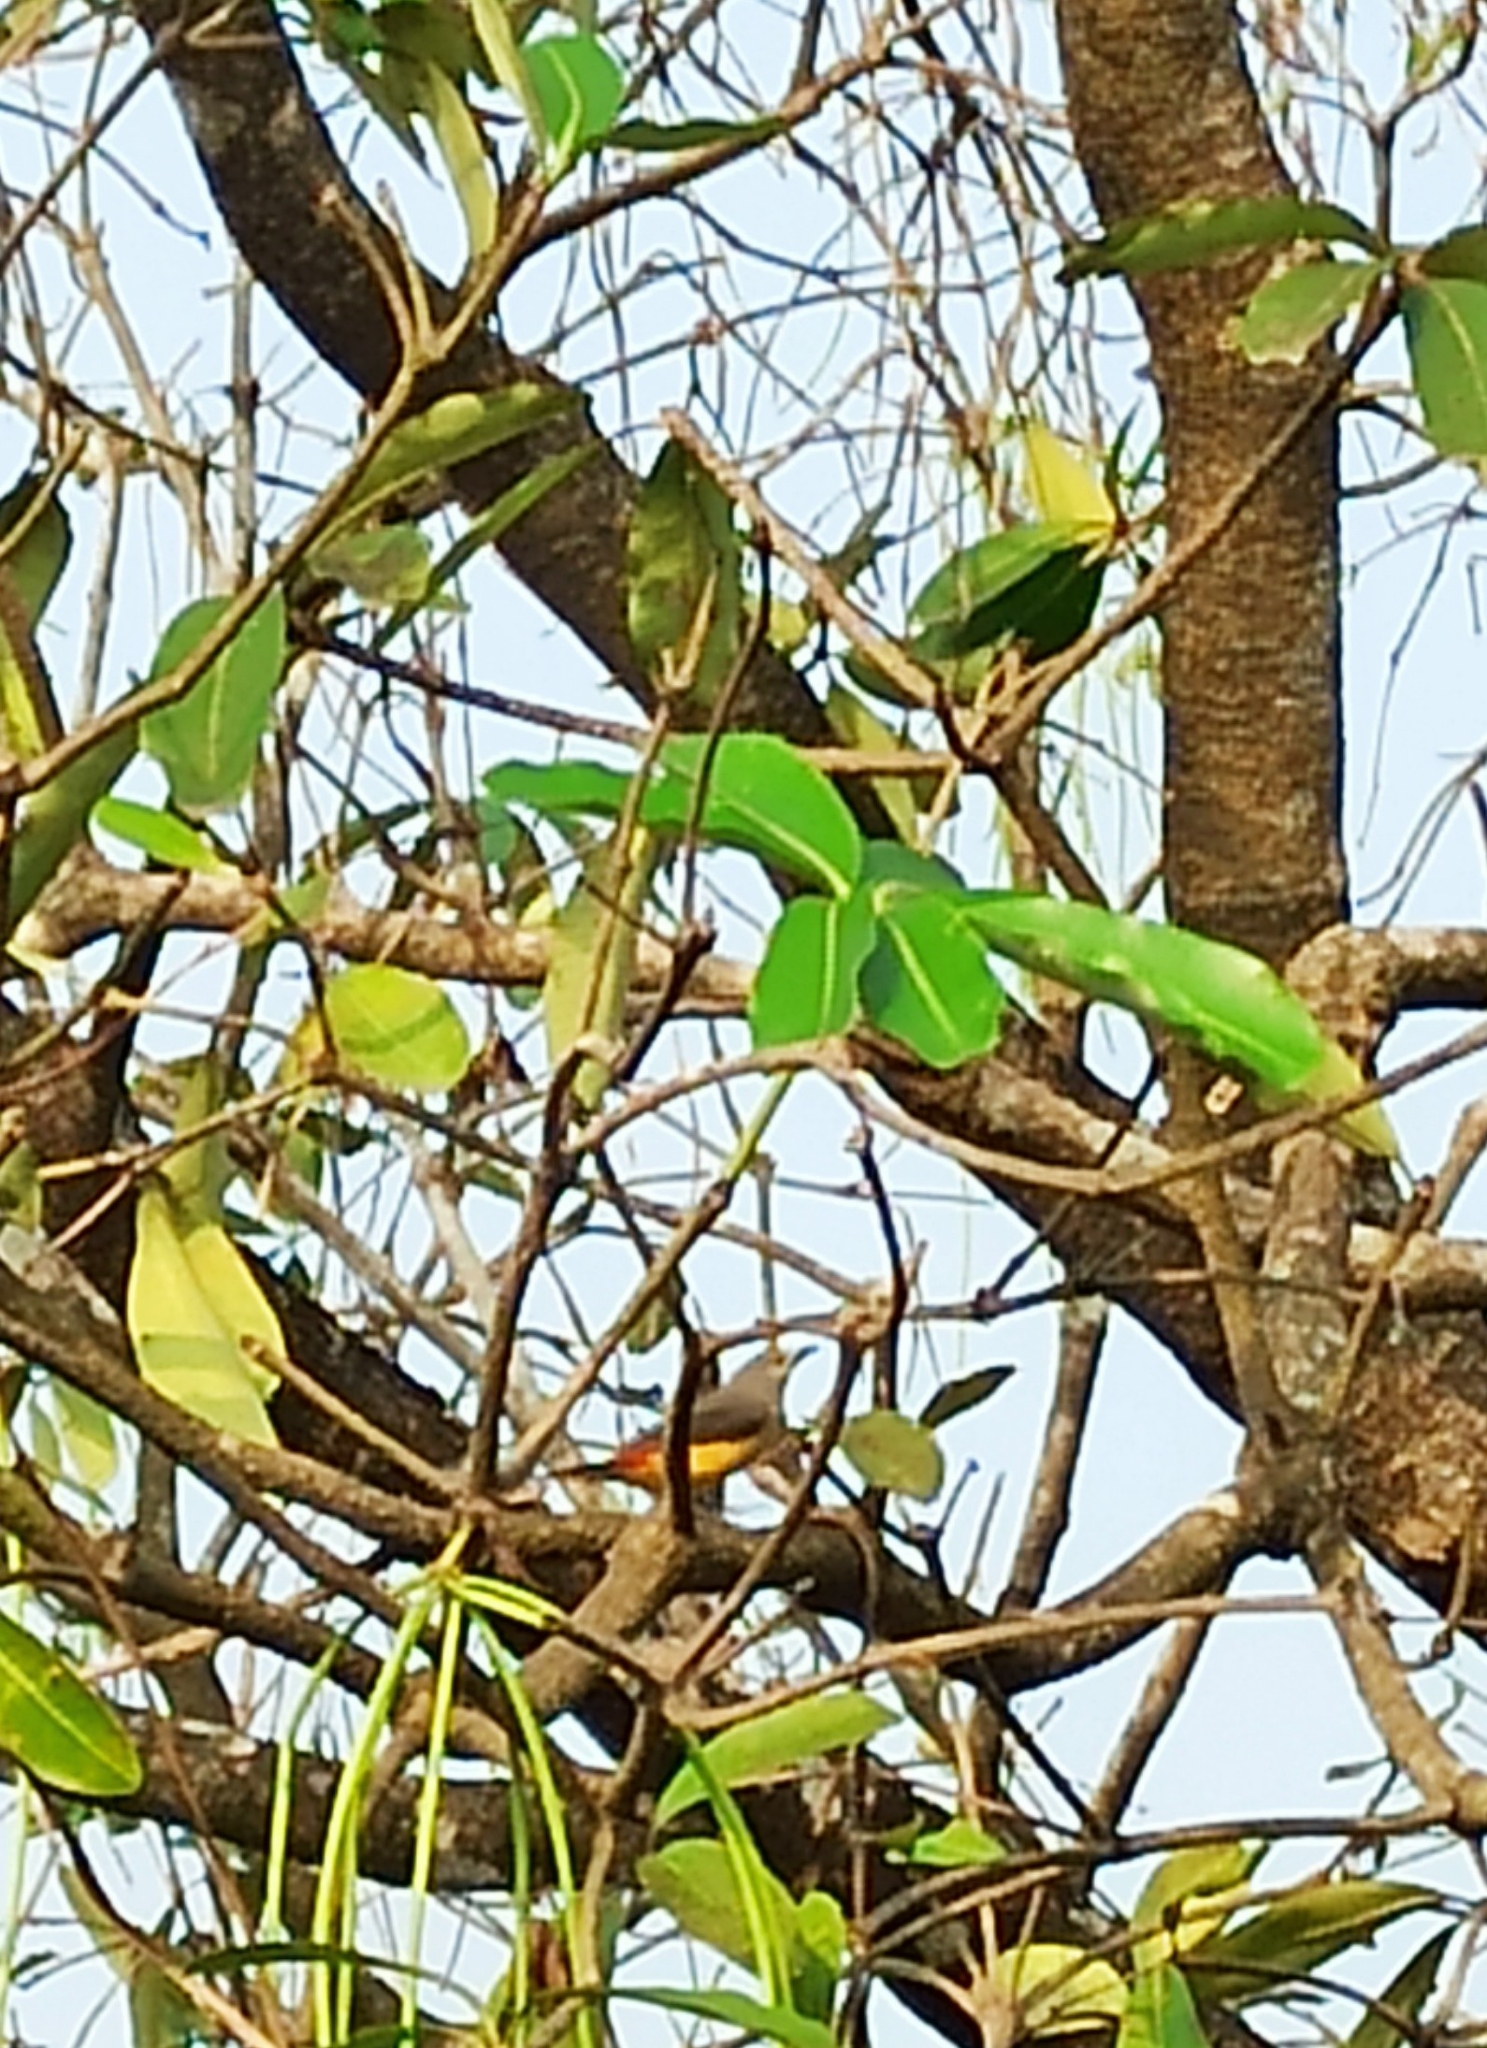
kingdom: Animalia
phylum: Chordata
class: Aves
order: Passeriformes
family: Campephagidae
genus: Pericrocotus
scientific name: Pericrocotus cinnamomeus
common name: Small minivet
